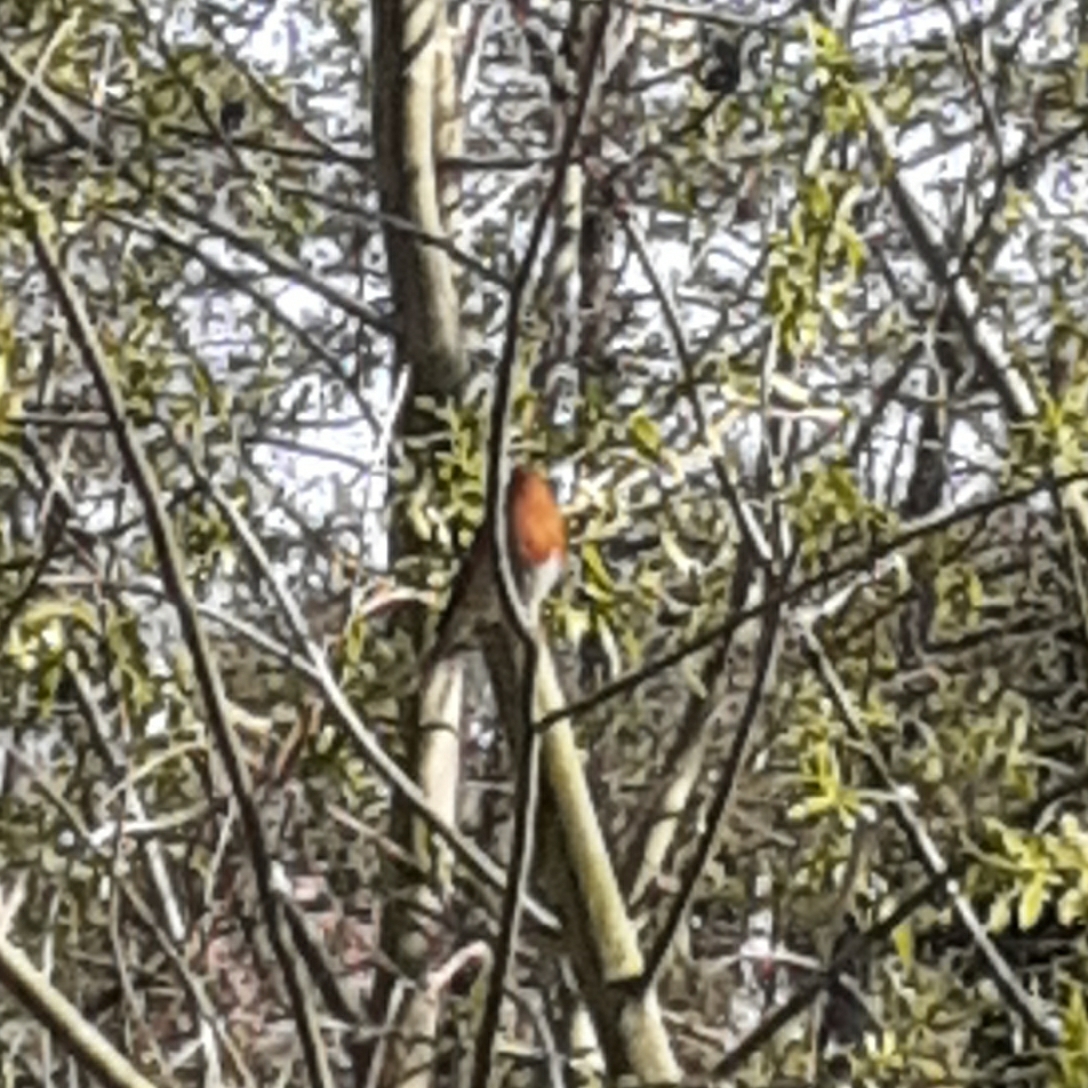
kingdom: Animalia
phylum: Chordata
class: Aves
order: Passeriformes
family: Muscicapidae
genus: Erithacus
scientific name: Erithacus rubecula
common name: European robin
